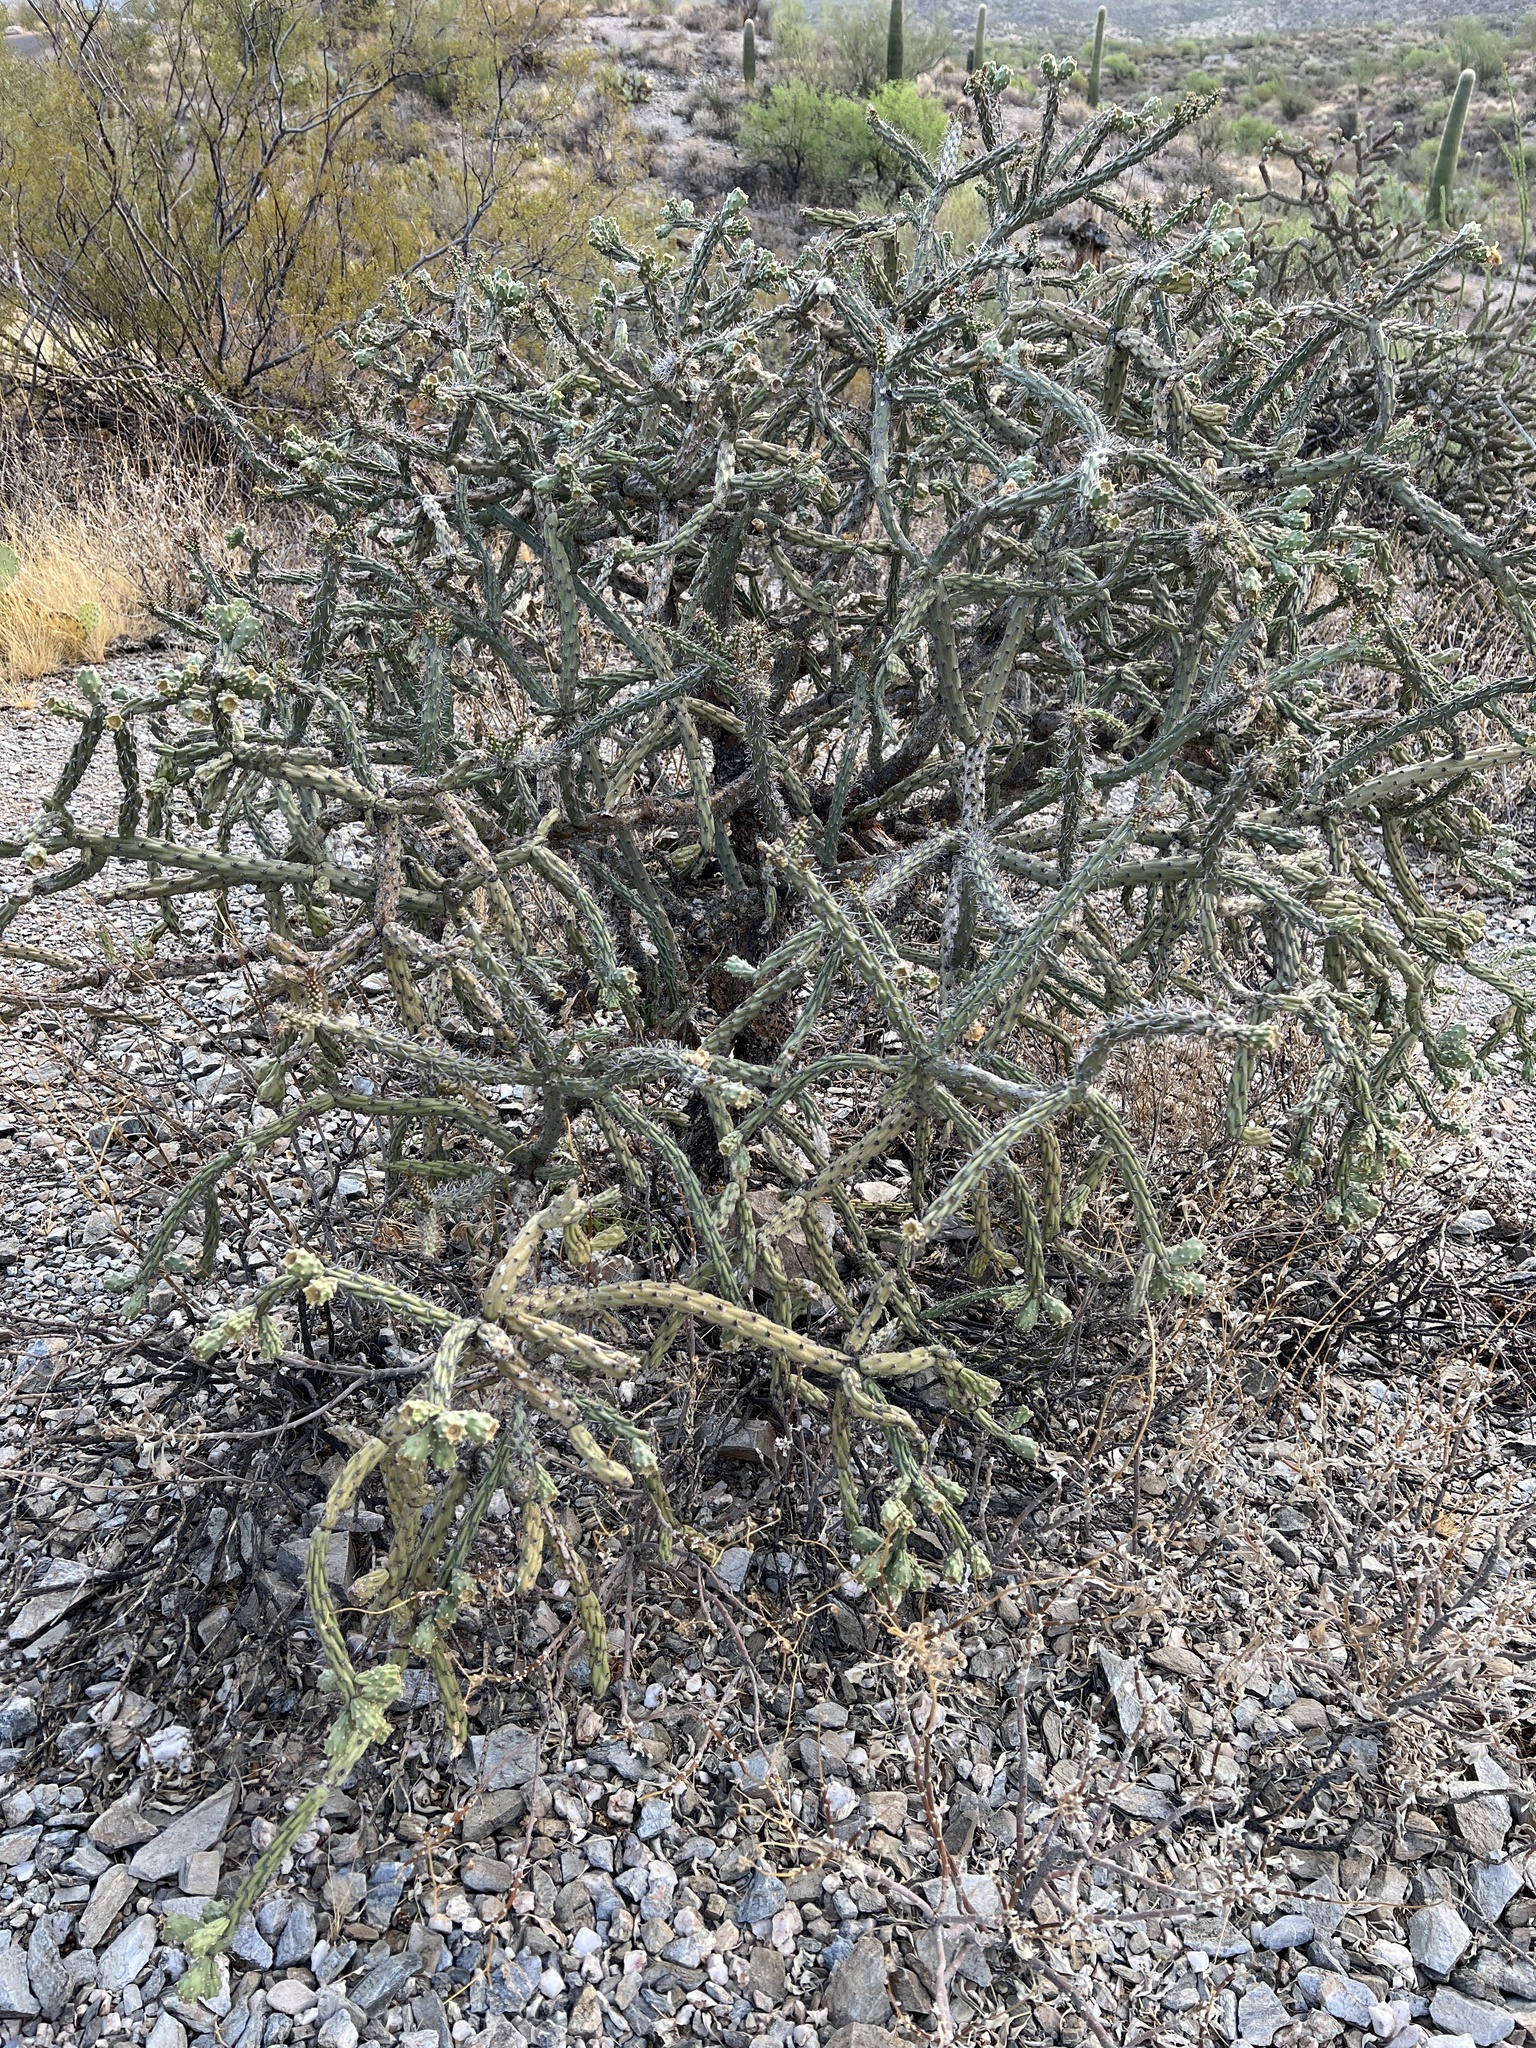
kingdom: Plantae
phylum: Tracheophyta
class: Magnoliopsida
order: Caryophyllales
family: Cactaceae
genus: Cylindropuntia
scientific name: Cylindropuntia thurberi
